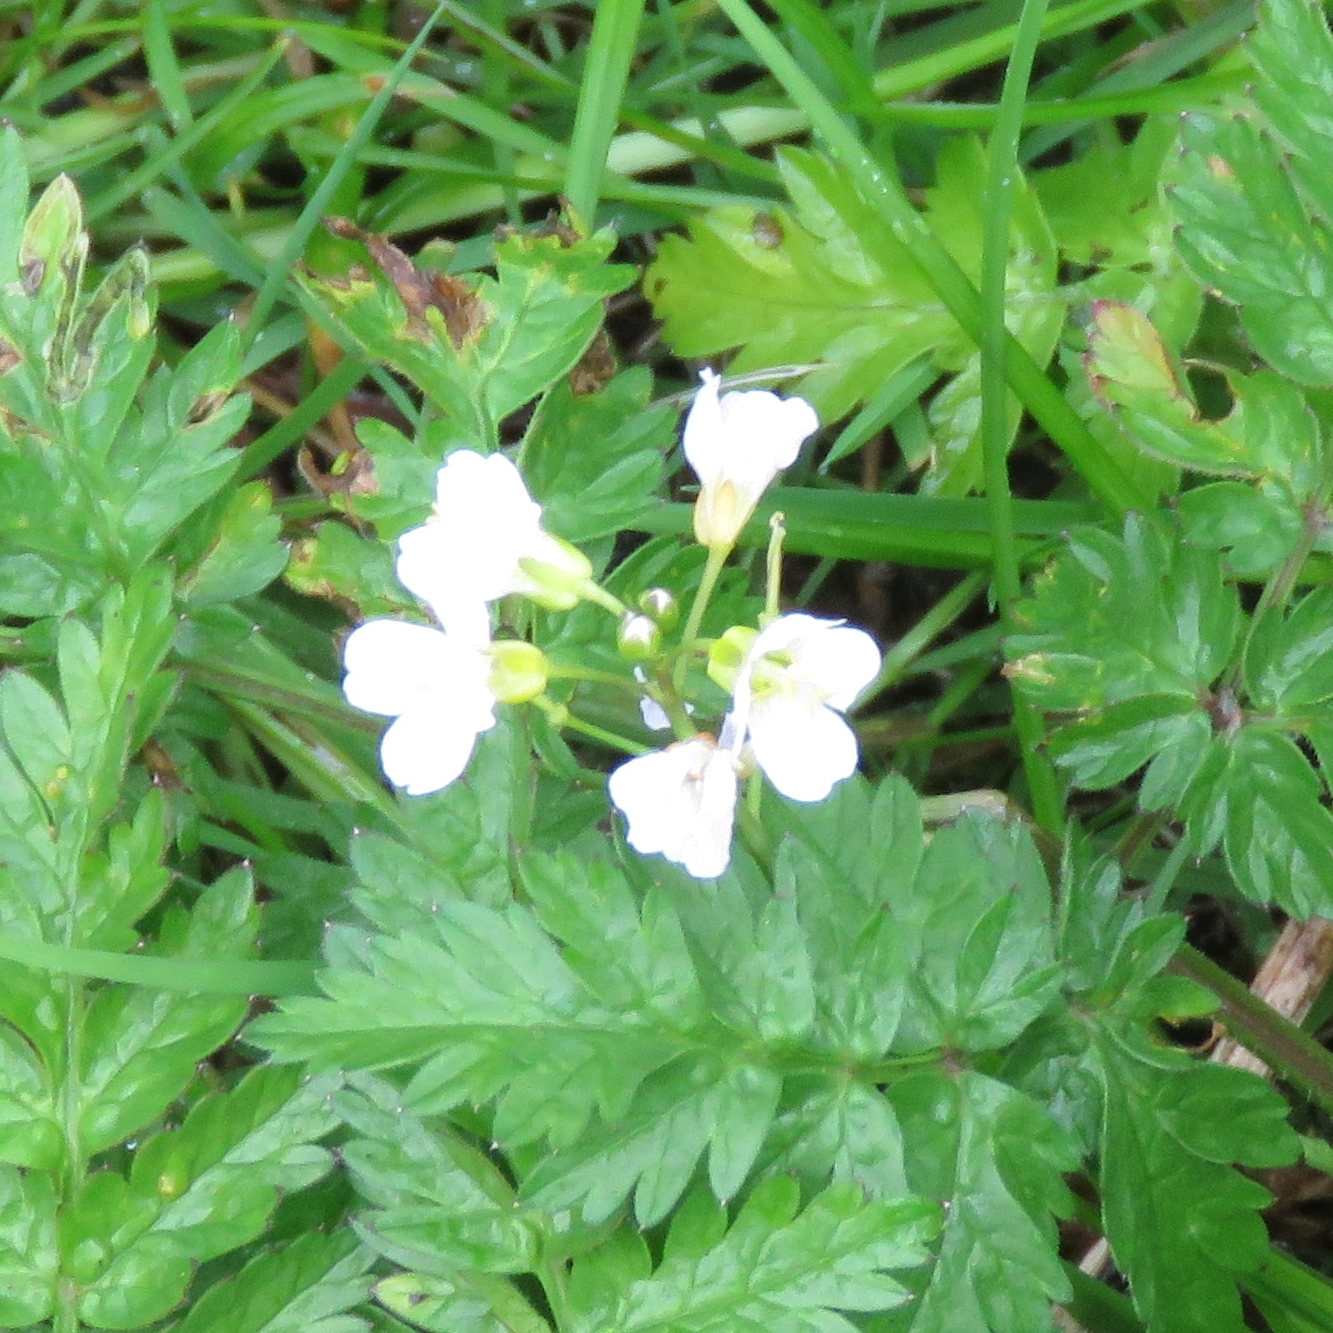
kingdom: Plantae
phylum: Tracheophyta
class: Magnoliopsida
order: Brassicales
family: Brassicaceae
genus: Cardamine
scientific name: Cardamine pratensis
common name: Cuckoo flower
